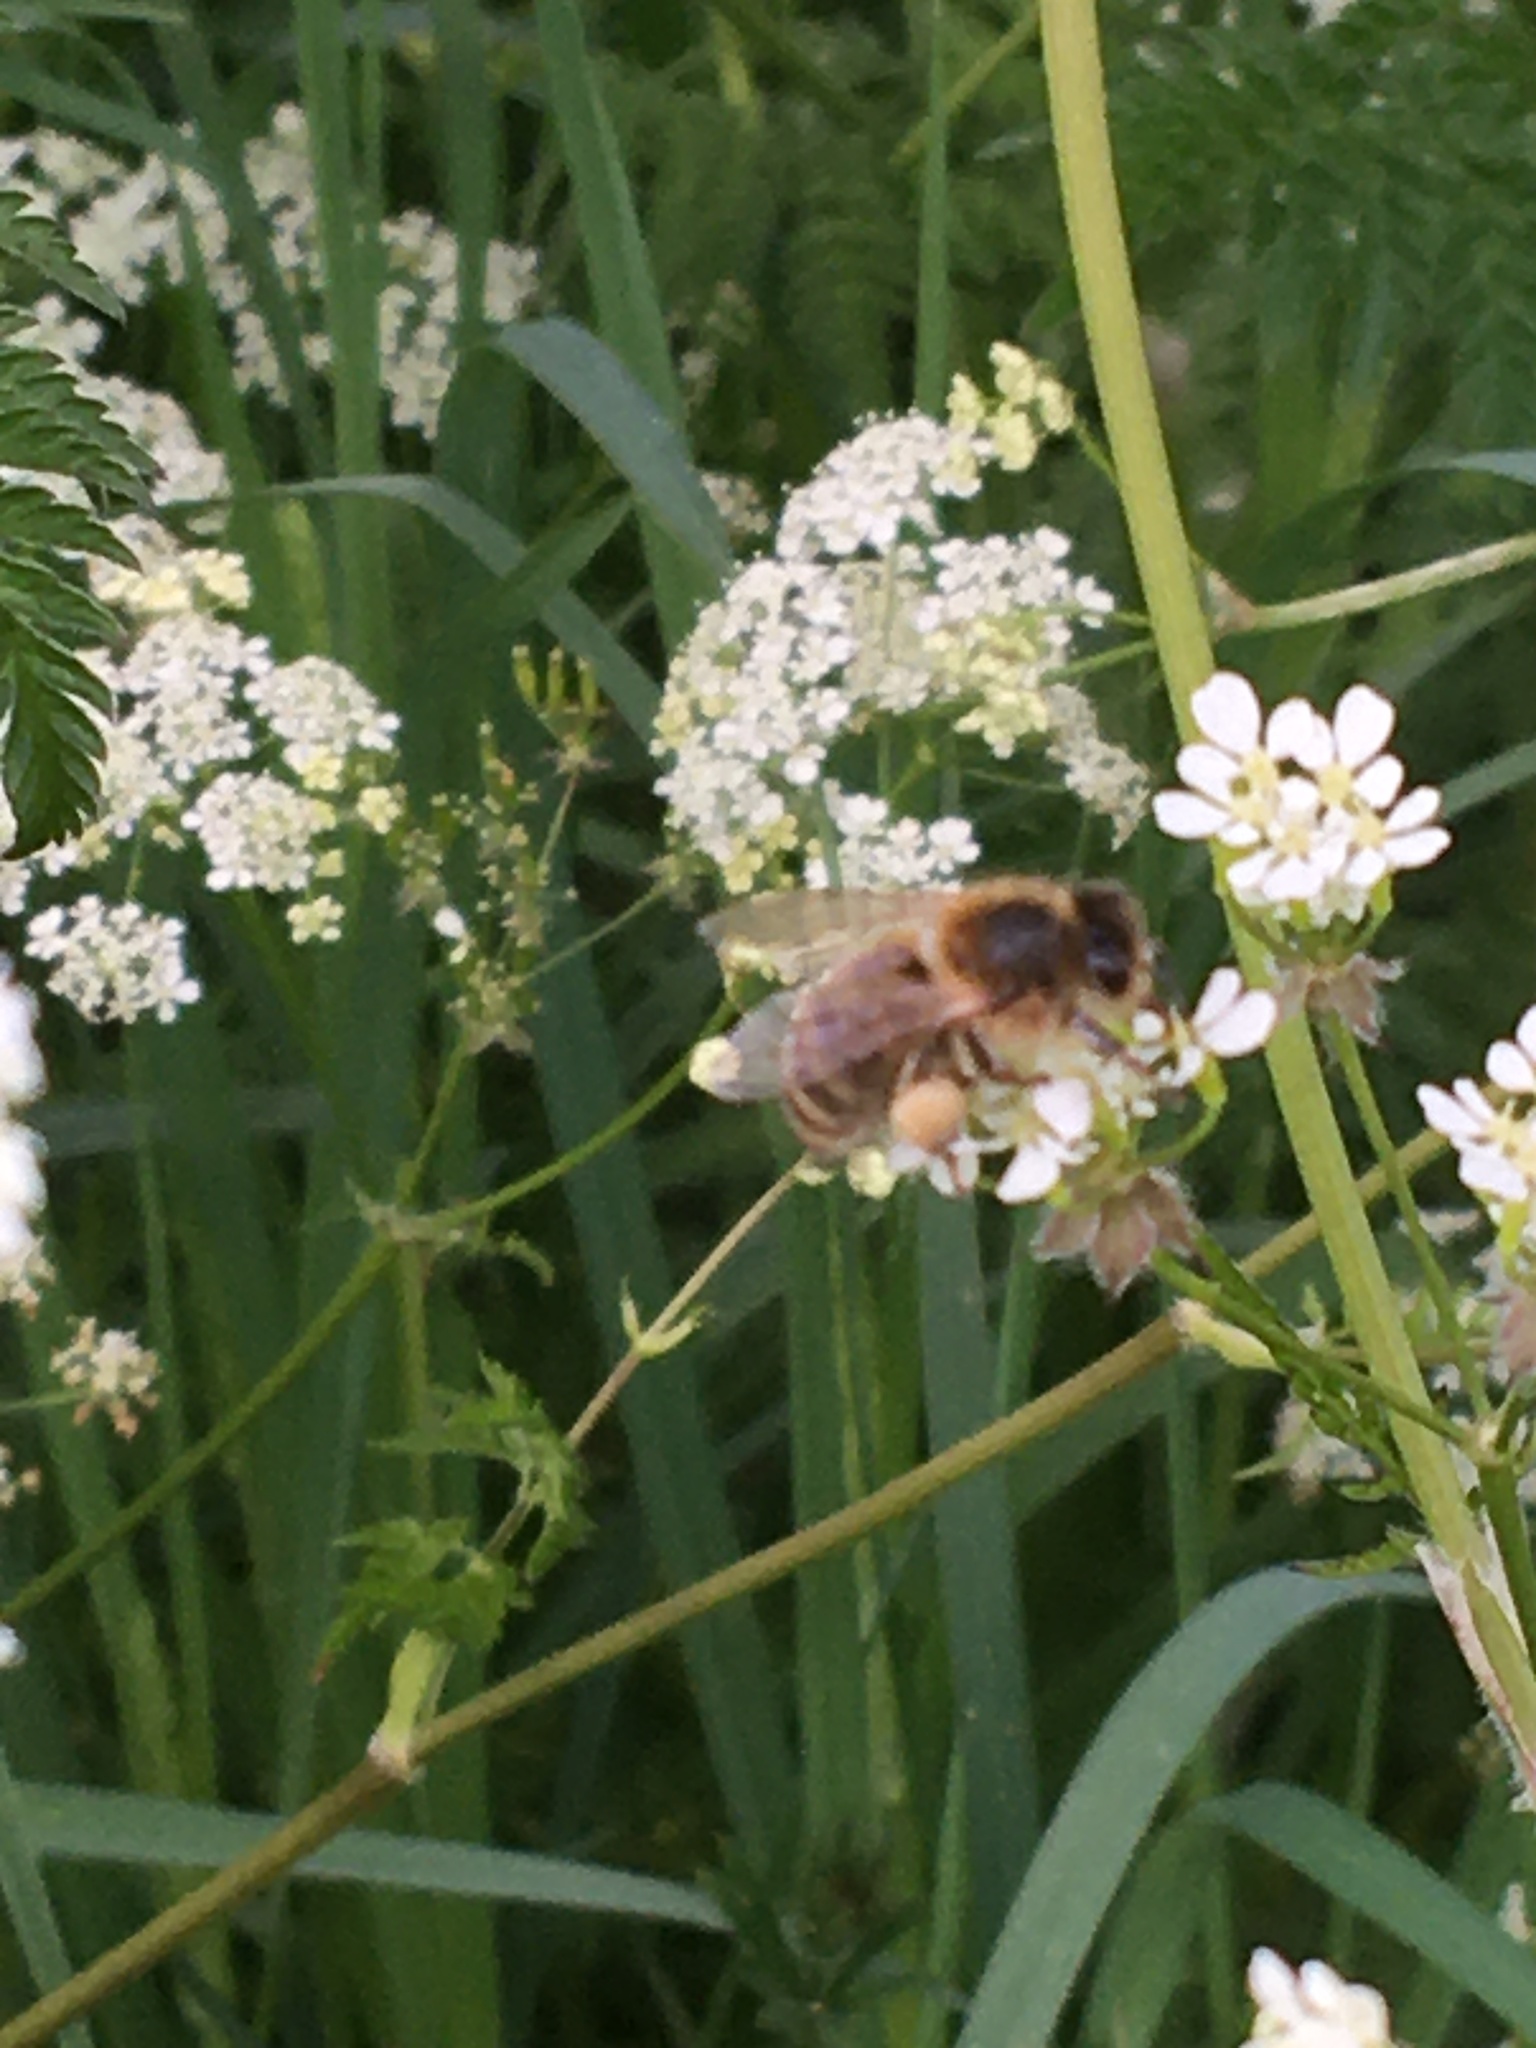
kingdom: Animalia
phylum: Arthropoda
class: Insecta
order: Hymenoptera
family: Apidae
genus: Apis
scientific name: Apis mellifera
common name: Honey bee
